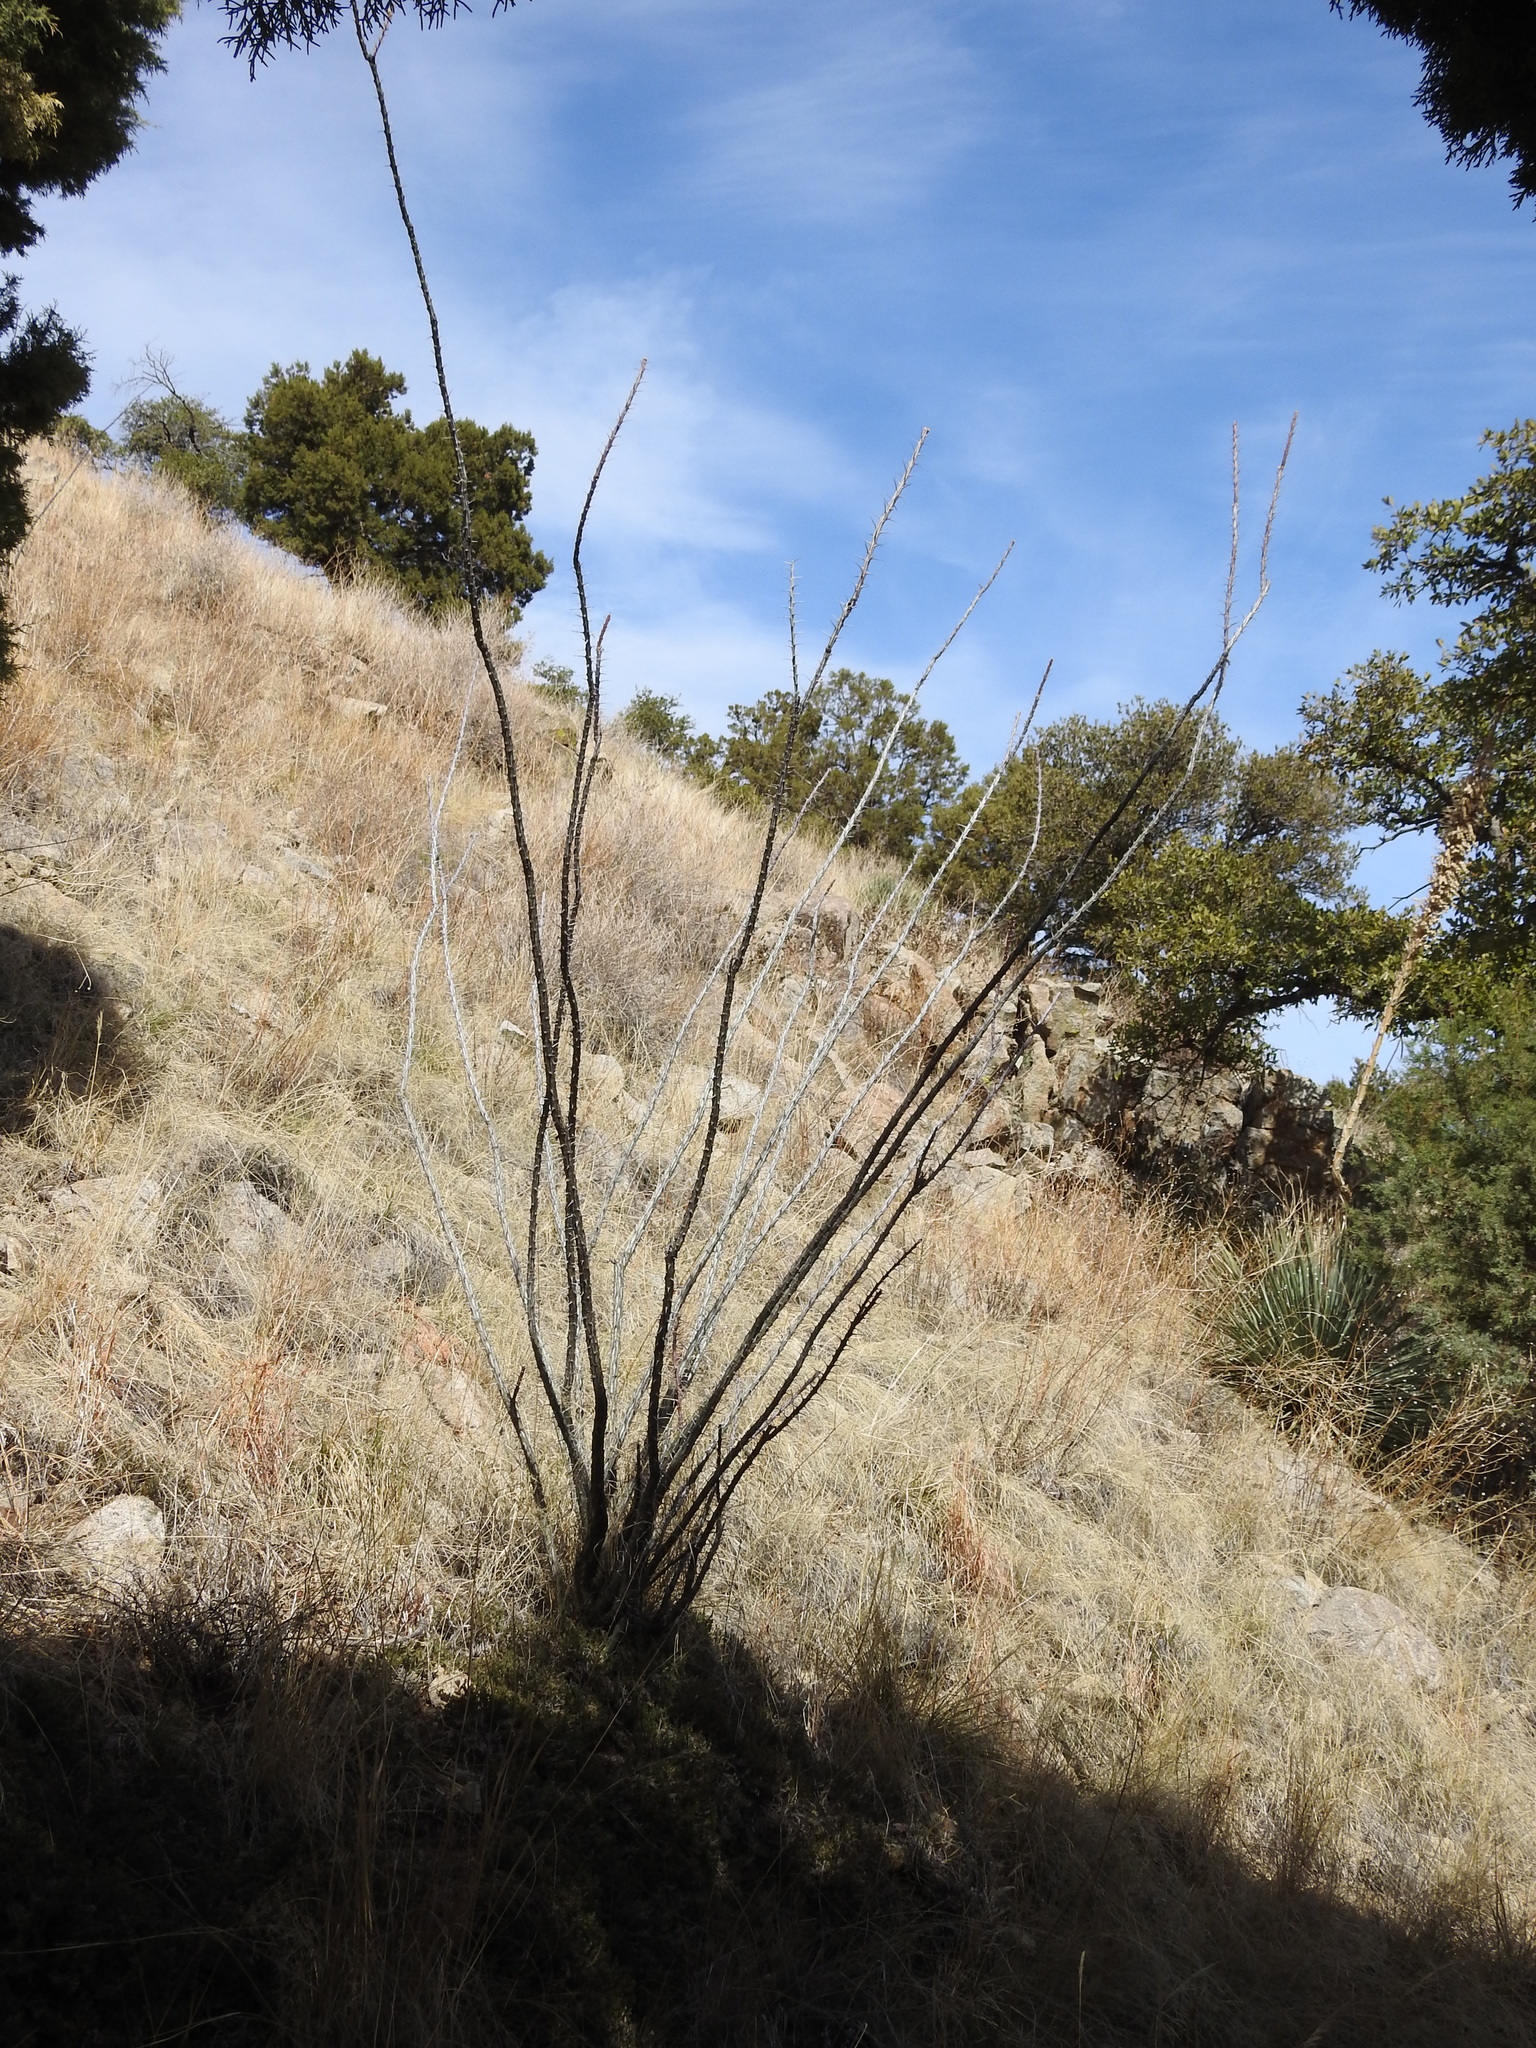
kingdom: Plantae
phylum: Tracheophyta
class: Magnoliopsida
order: Ericales
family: Fouquieriaceae
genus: Fouquieria
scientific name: Fouquieria splendens
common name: Vine-cactus
